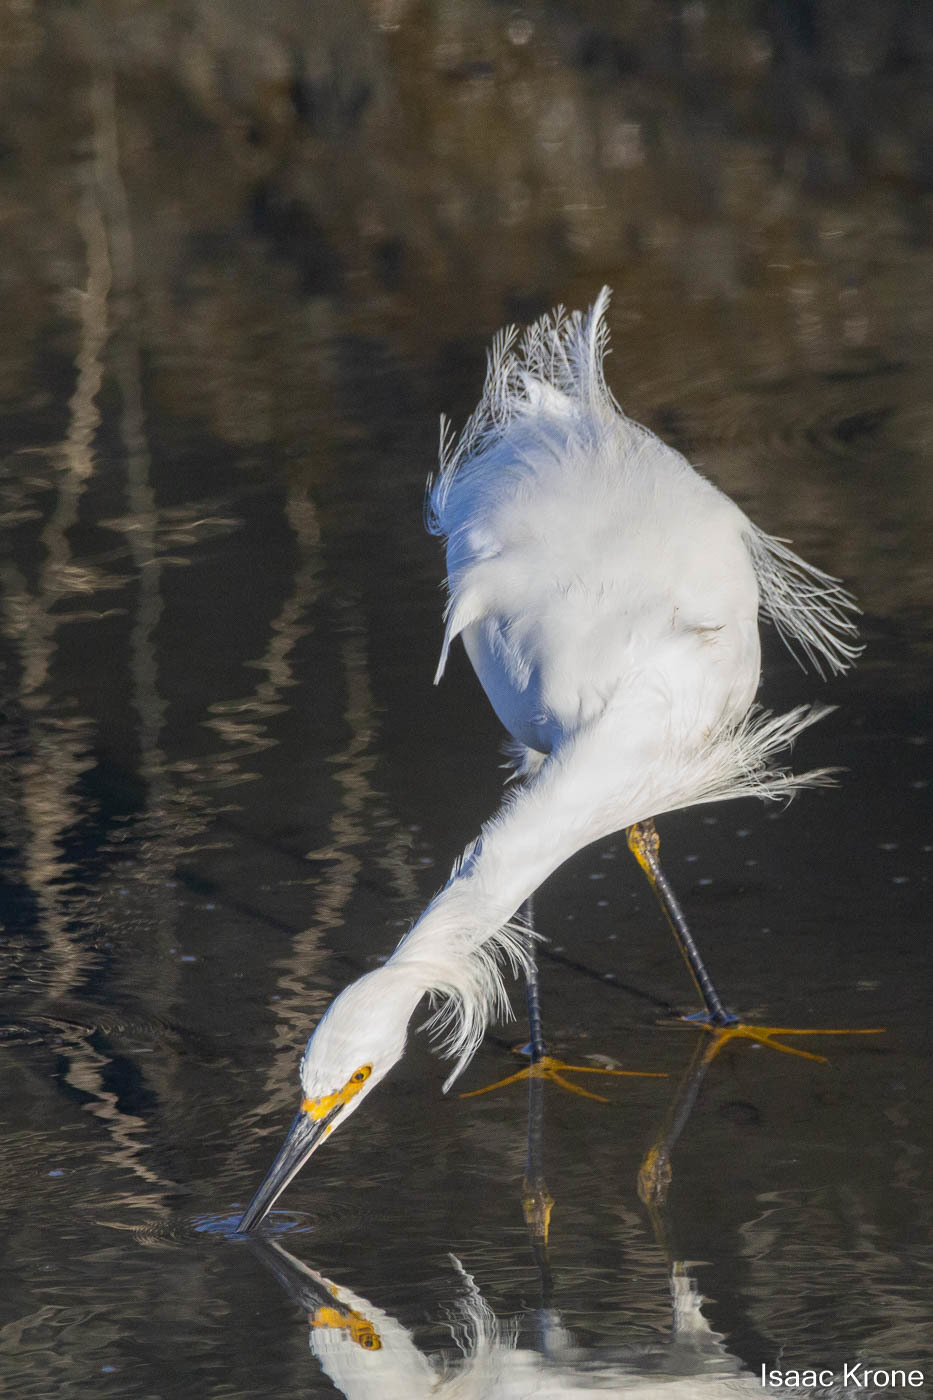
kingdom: Animalia
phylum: Chordata
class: Aves
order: Pelecaniformes
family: Ardeidae
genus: Egretta
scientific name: Egretta thula
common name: Snowy egret
